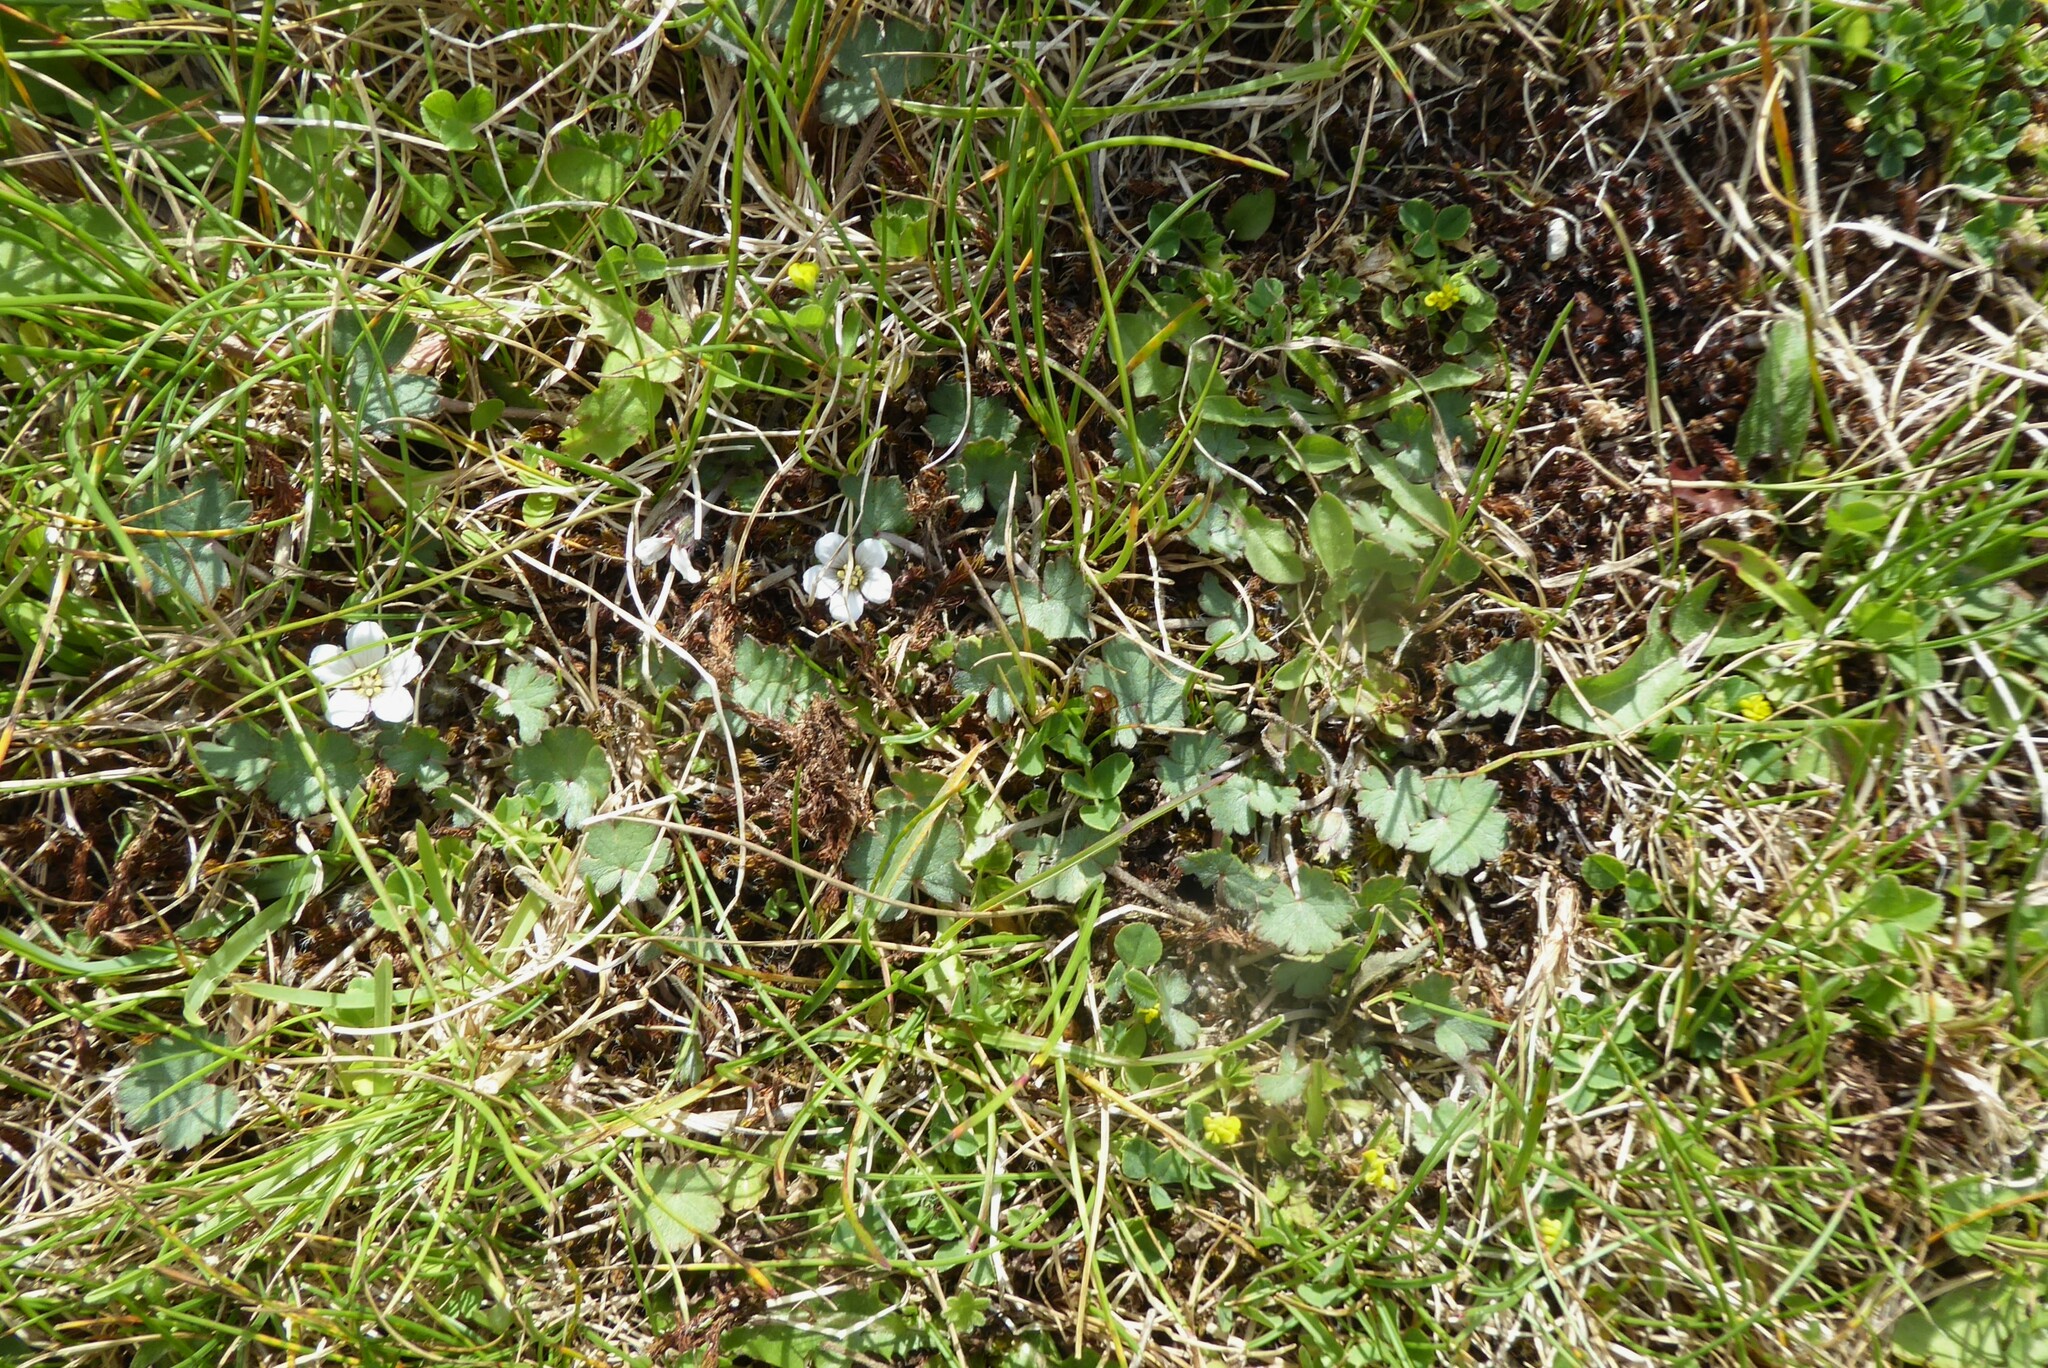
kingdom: Plantae
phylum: Tracheophyta
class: Magnoliopsida
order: Geraniales
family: Geraniaceae
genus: Geranium
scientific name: Geranium socolateum
